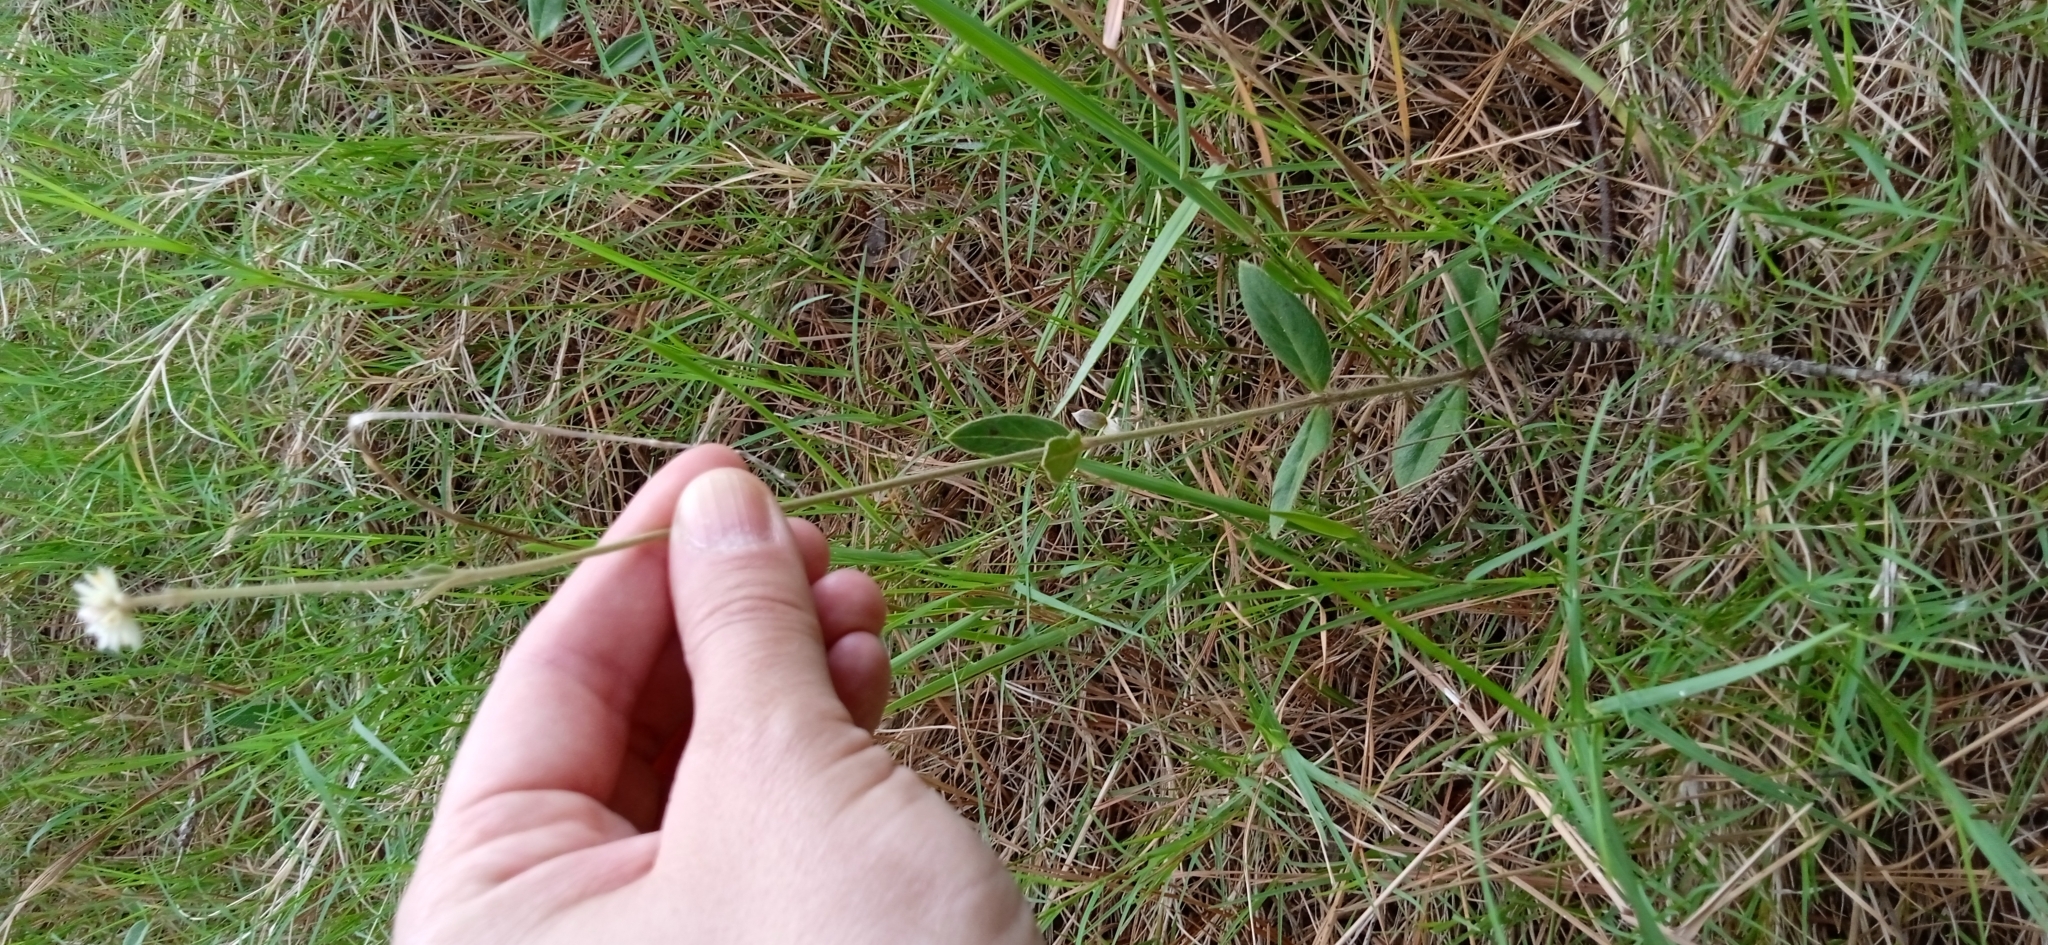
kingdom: Plantae
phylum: Tracheophyta
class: Magnoliopsida
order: Caryophyllales
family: Amaranthaceae
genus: Pfaffia
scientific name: Pfaffia tuberosa
